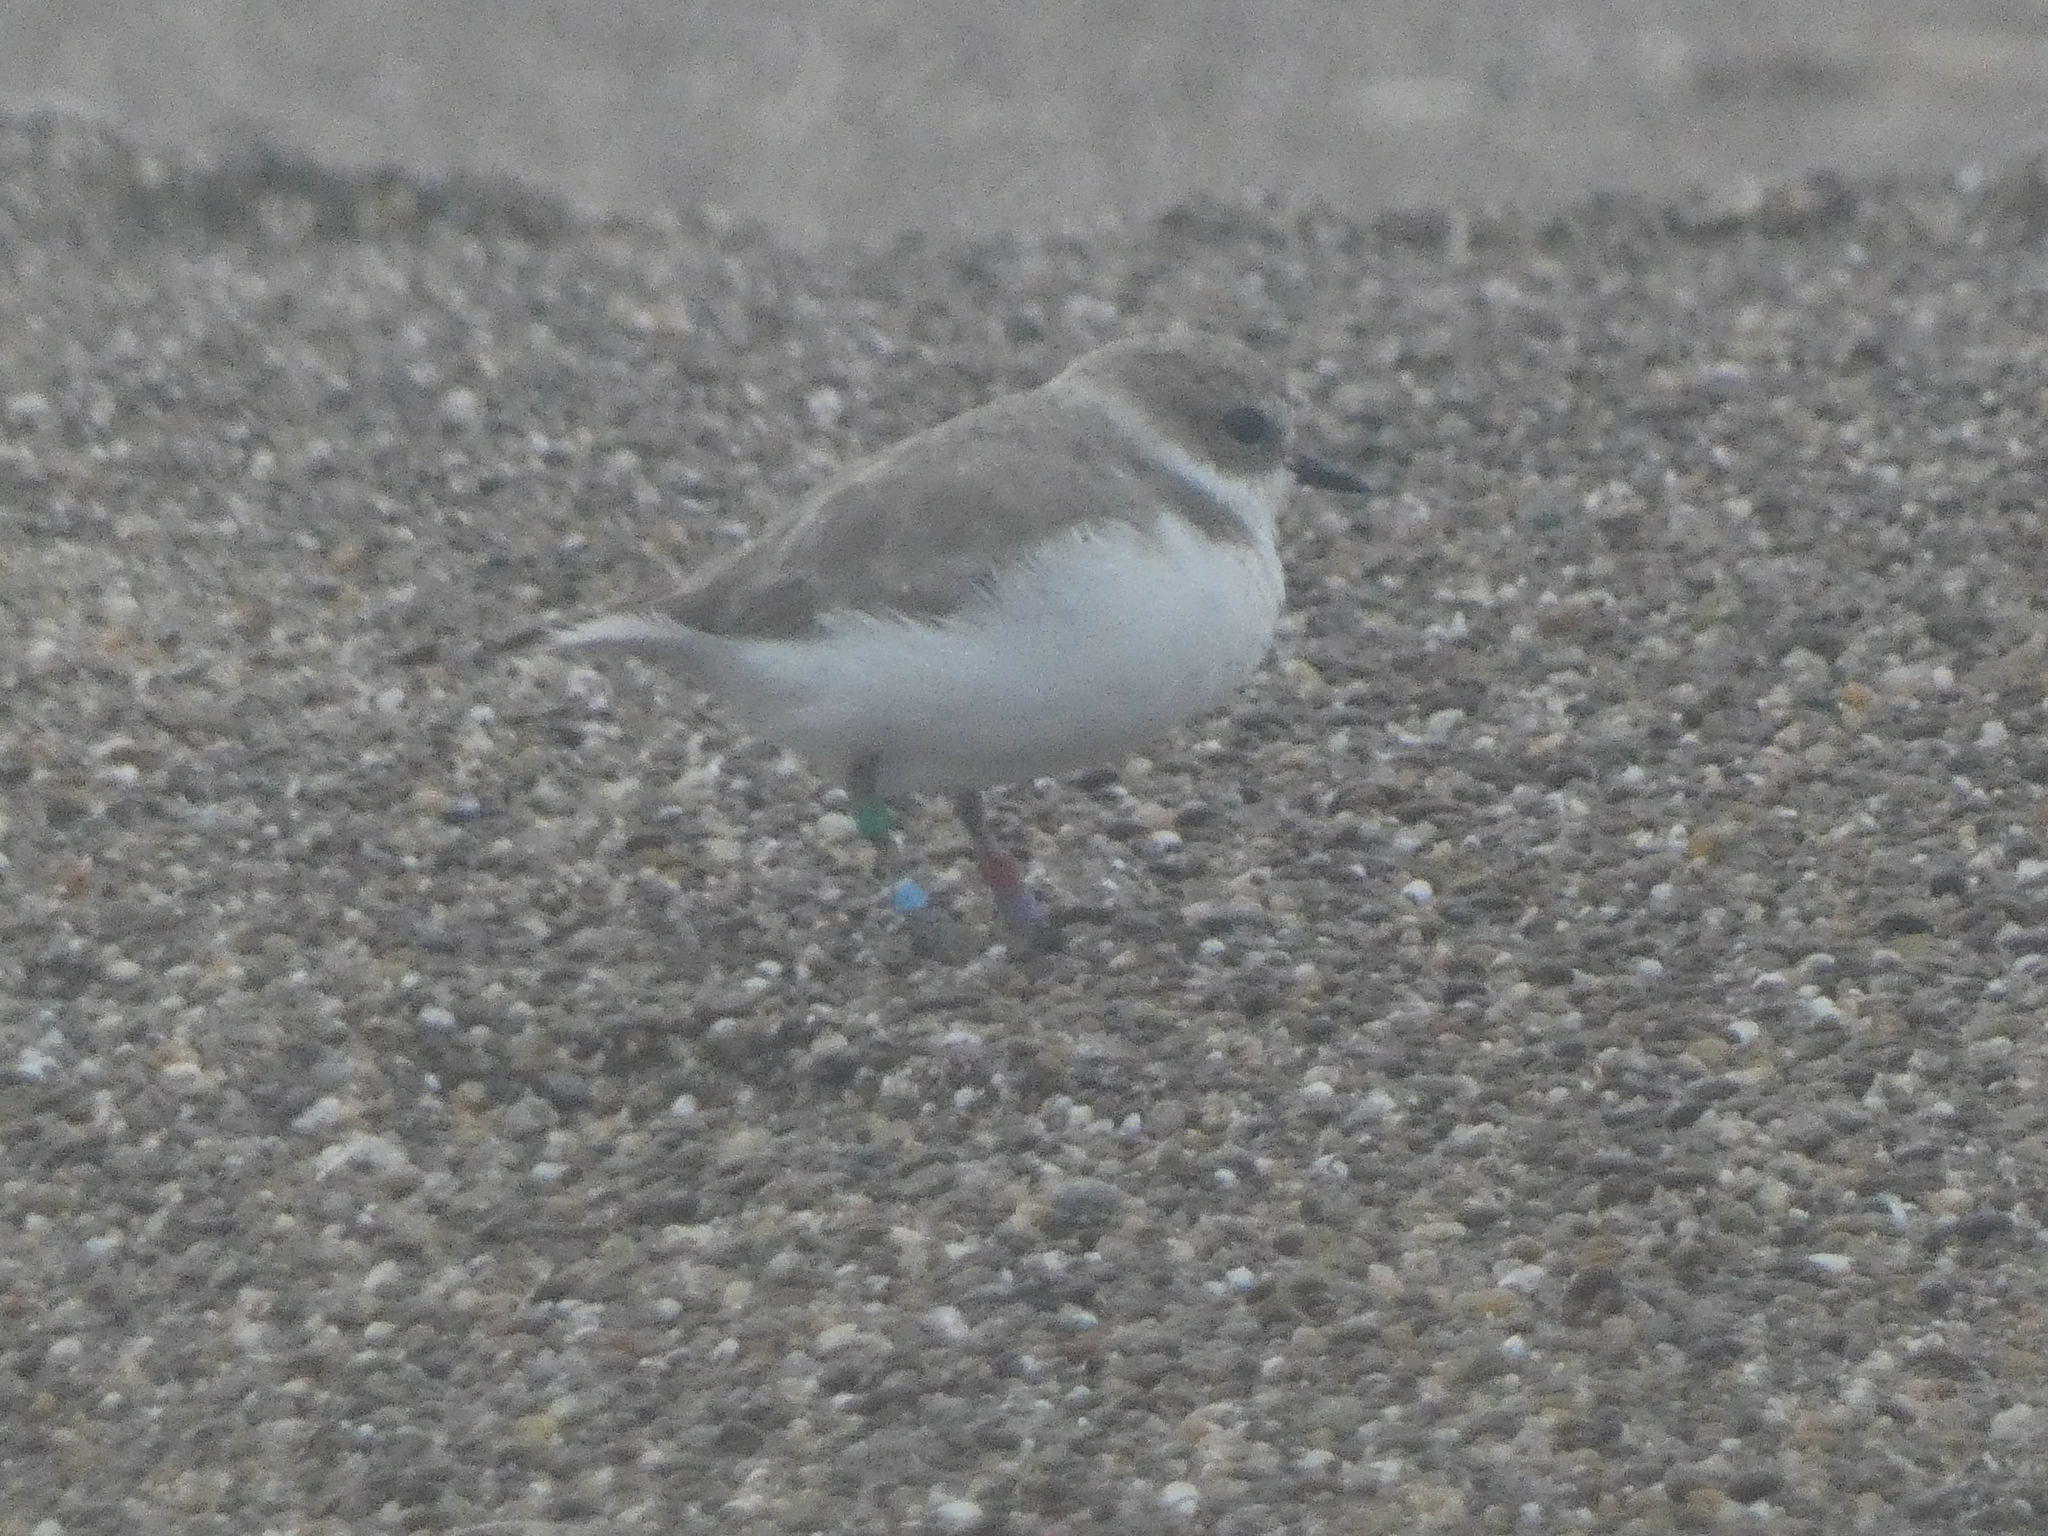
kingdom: Animalia
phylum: Chordata
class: Aves
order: Charadriiformes
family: Charadriidae
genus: Anarhynchus
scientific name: Anarhynchus
